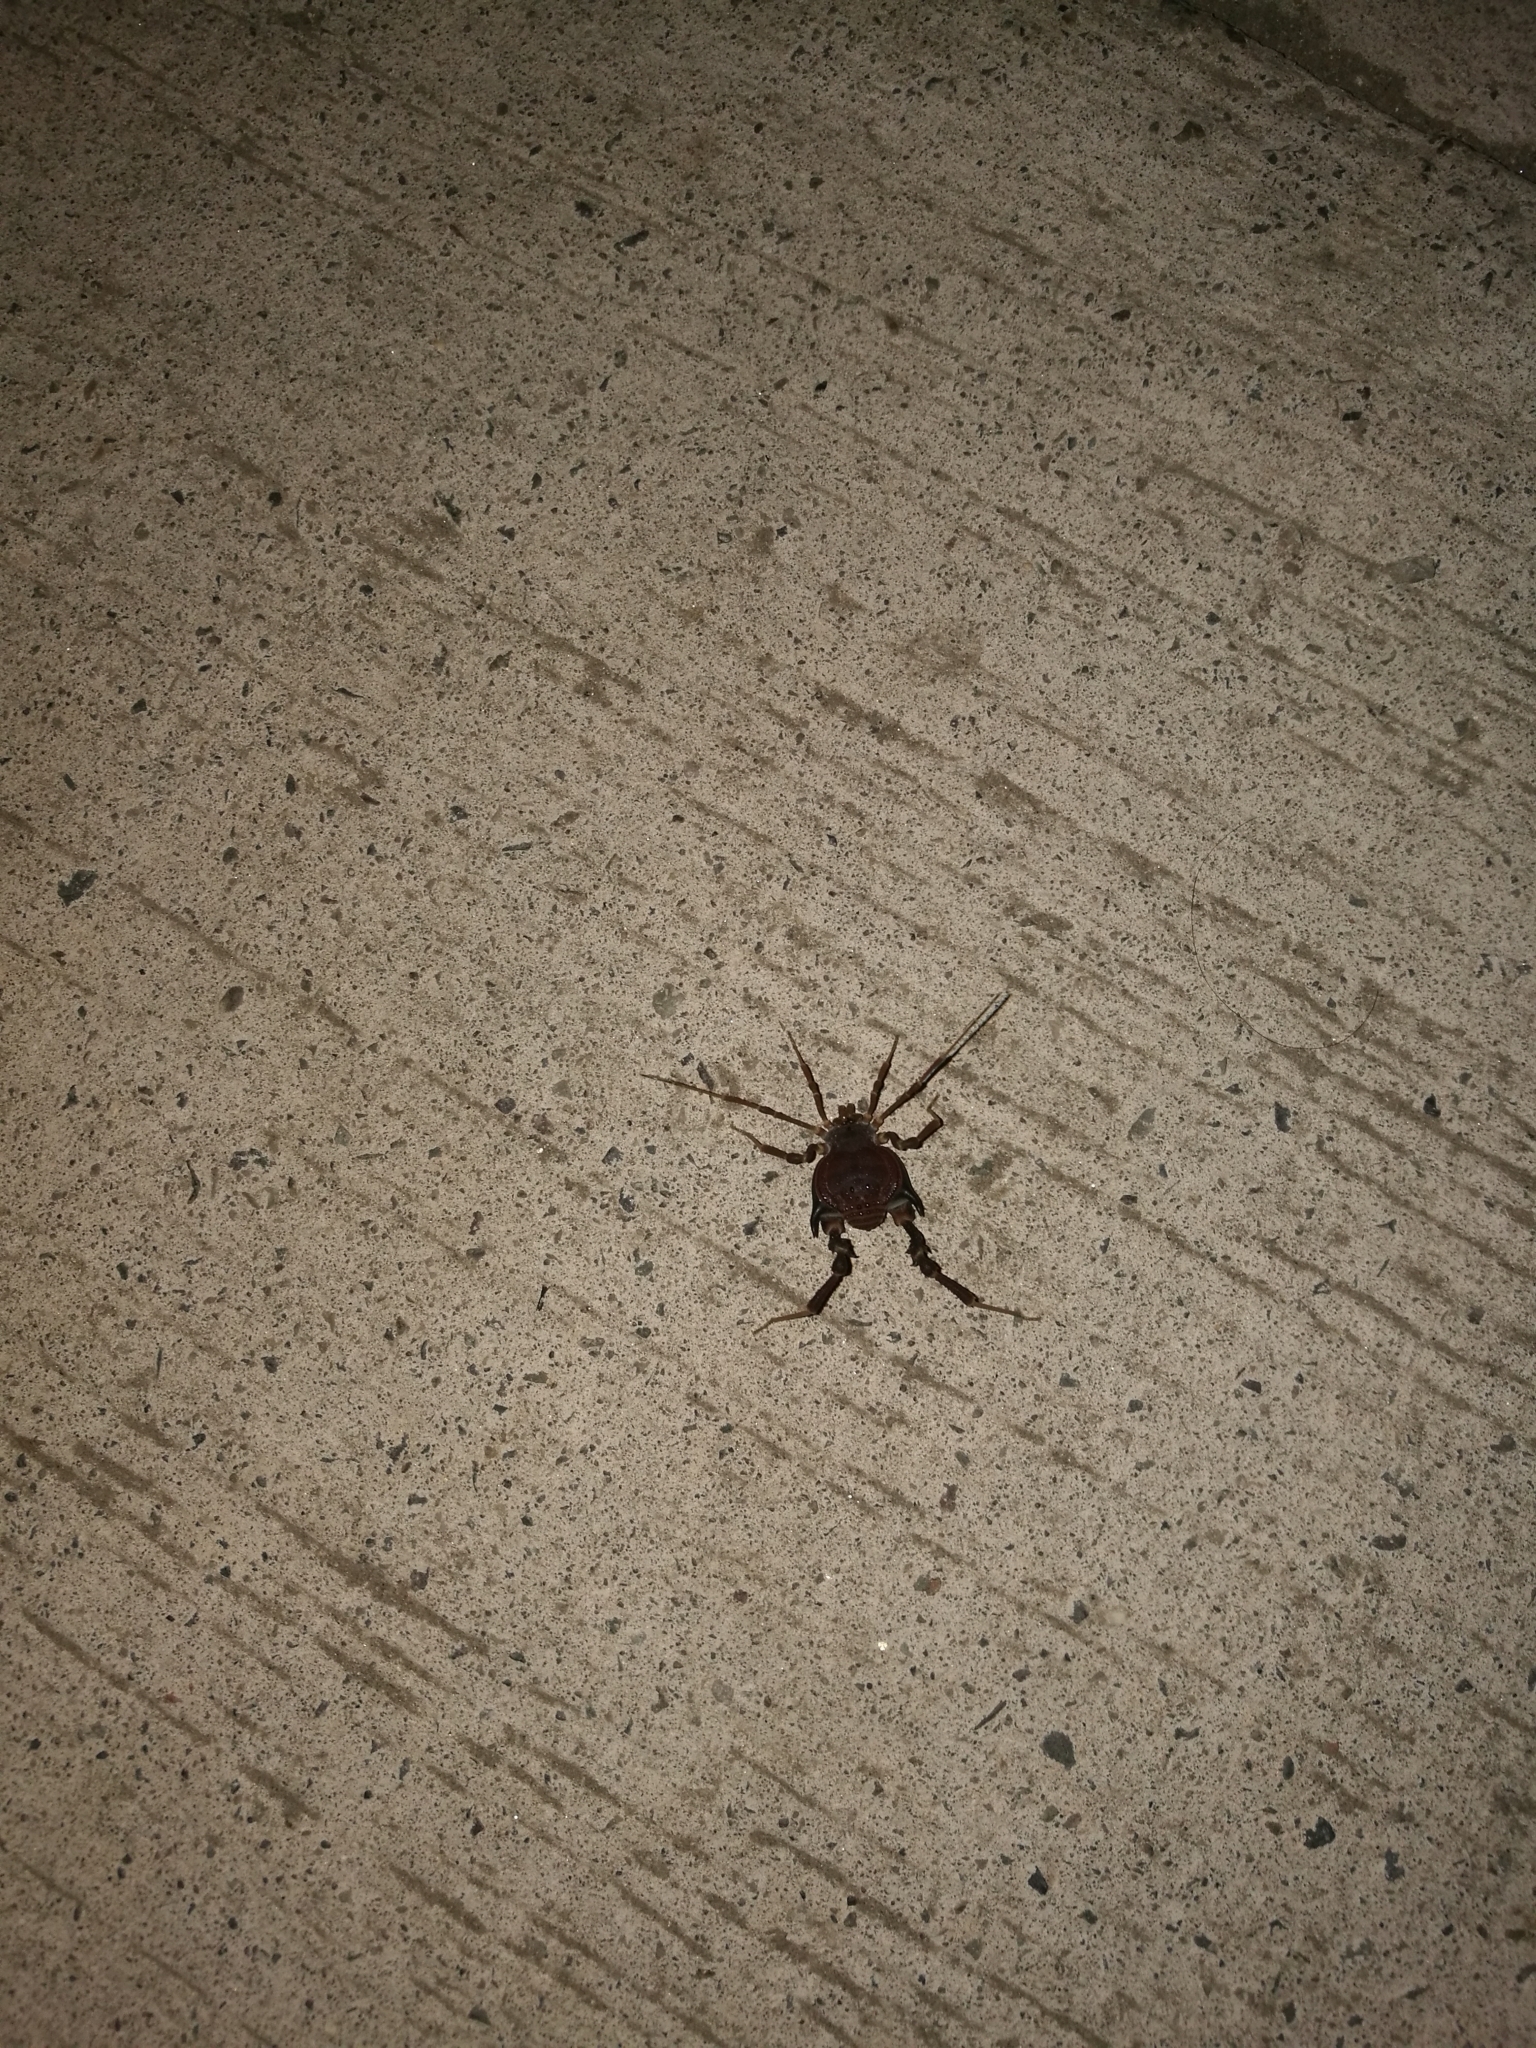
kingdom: Animalia
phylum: Arthropoda
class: Arachnida
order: Opiliones
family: Gonyleptidae
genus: Pachylus
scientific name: Pachylus chilensis
